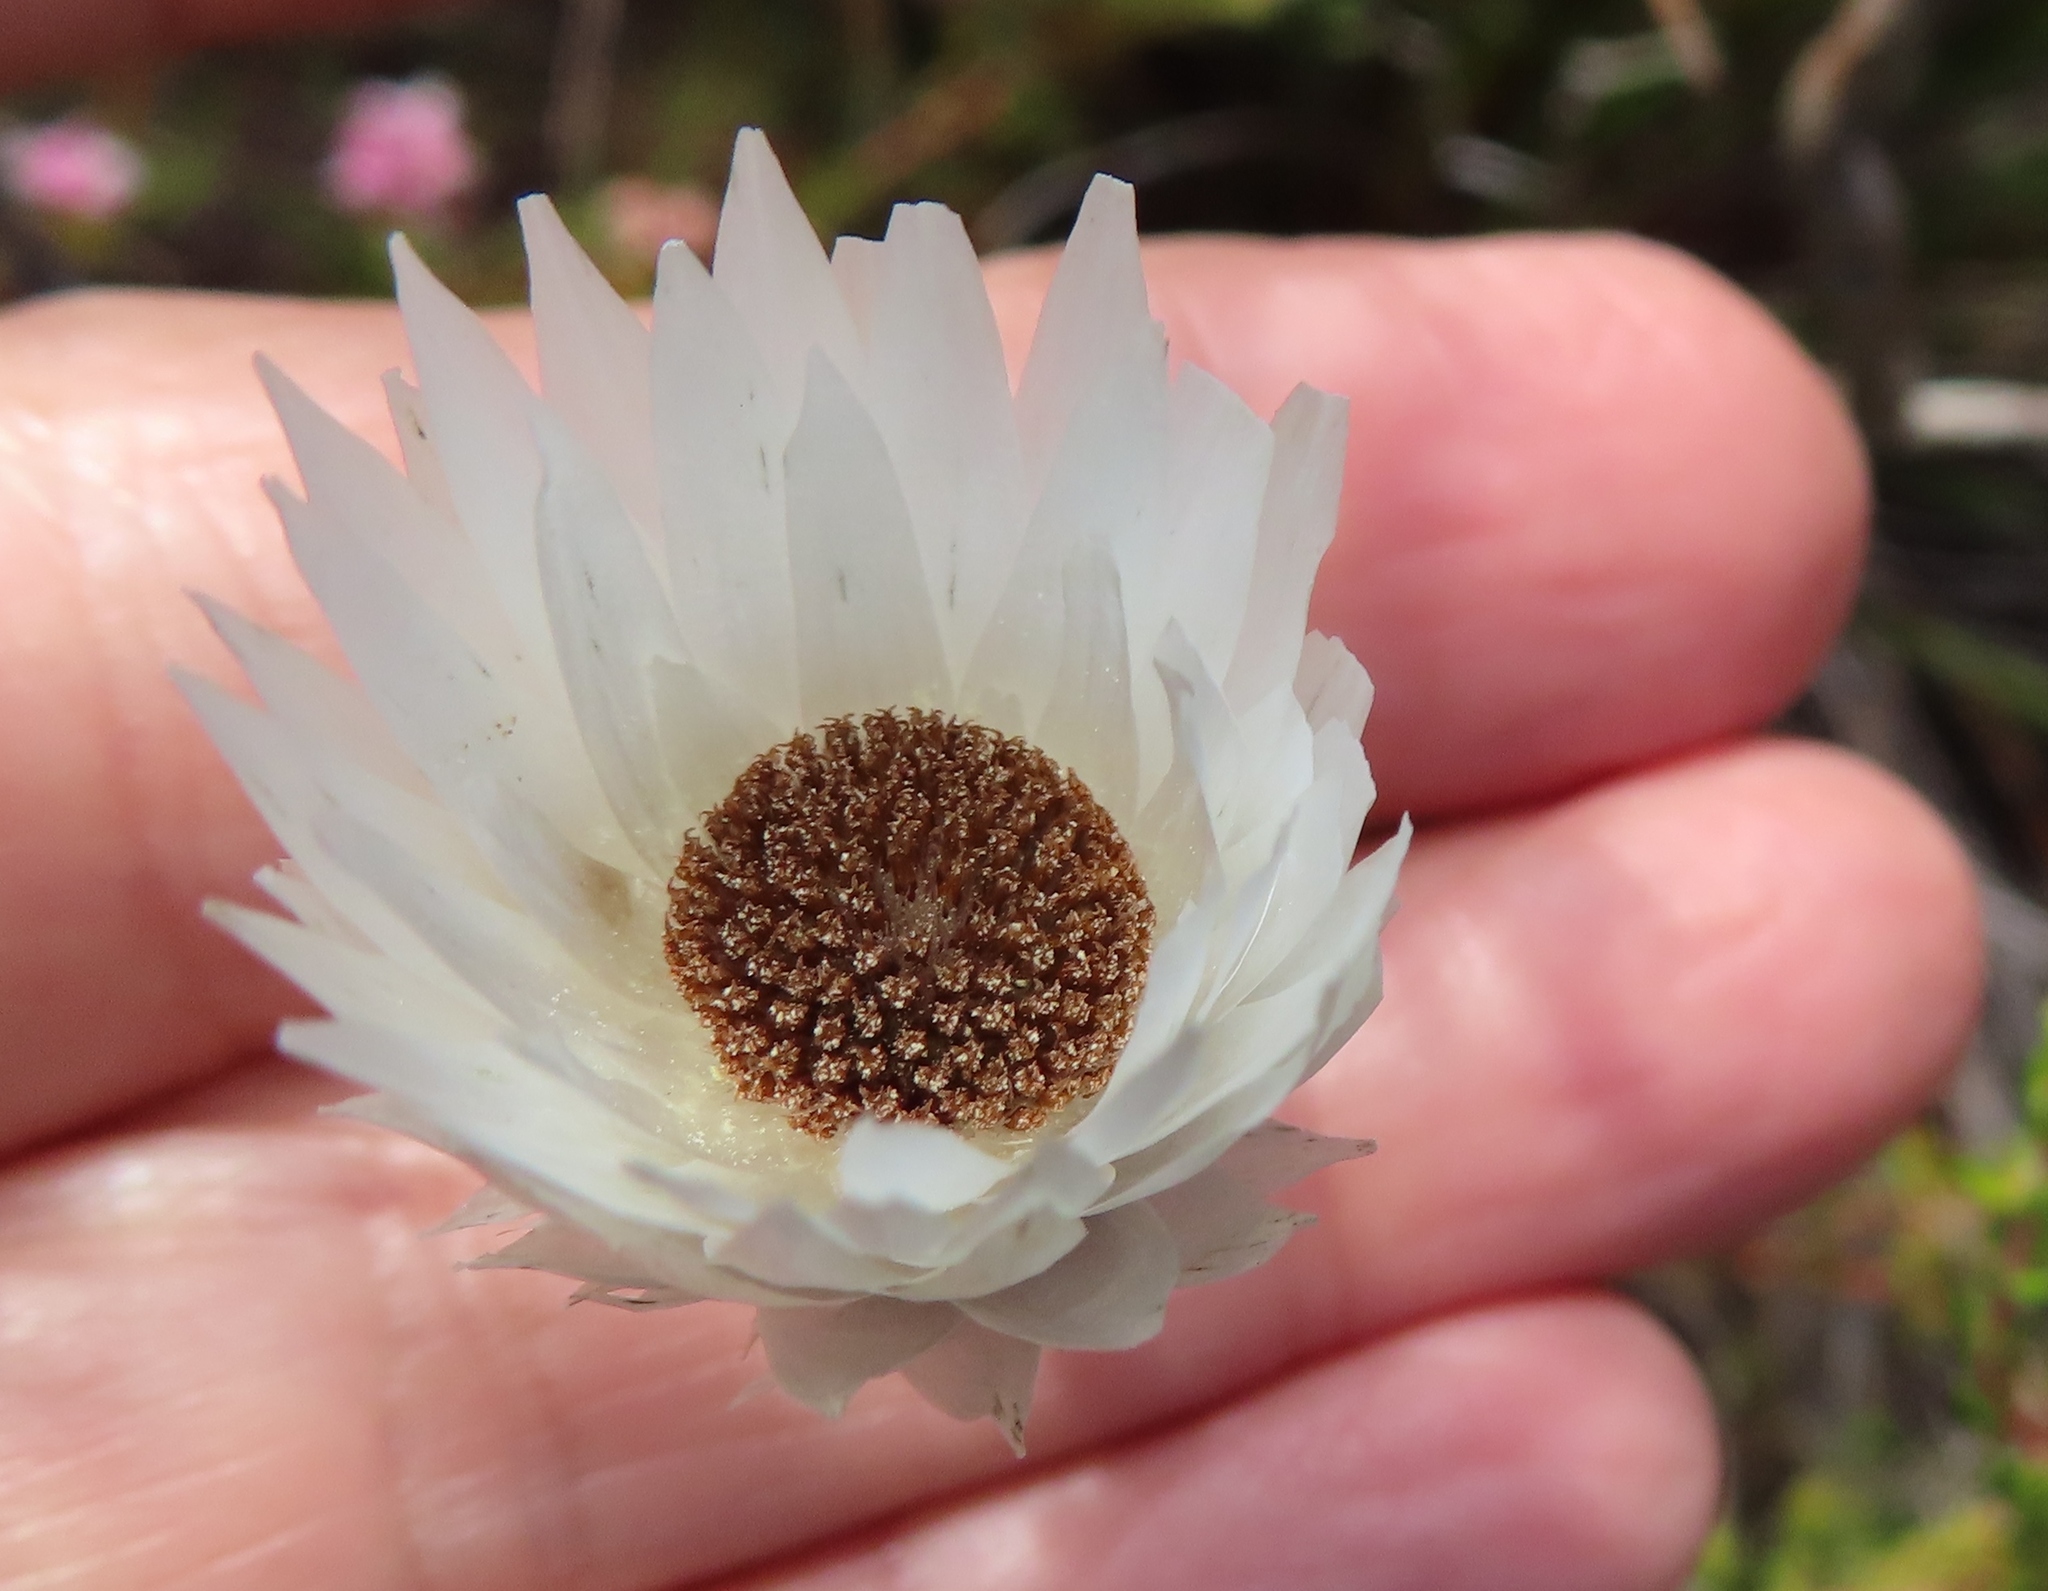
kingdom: Plantae
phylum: Tracheophyta
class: Magnoliopsida
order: Asterales
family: Asteraceae
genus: Edmondia
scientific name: Edmondia sesamoides
